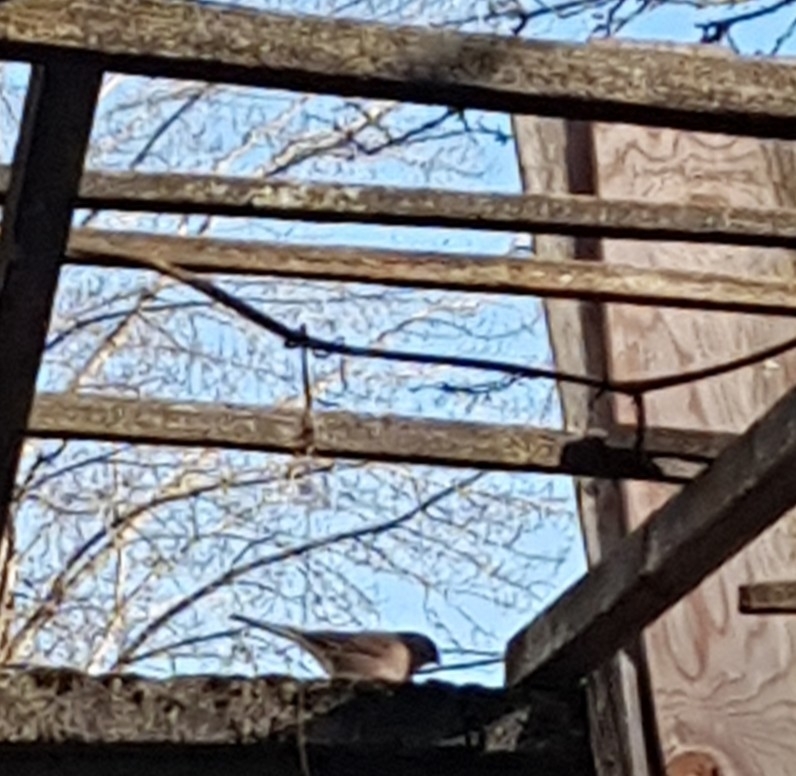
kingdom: Animalia
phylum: Chordata
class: Aves
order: Passeriformes
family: Passerellidae
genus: Junco
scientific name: Junco hyemalis
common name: Dark-eyed junco
